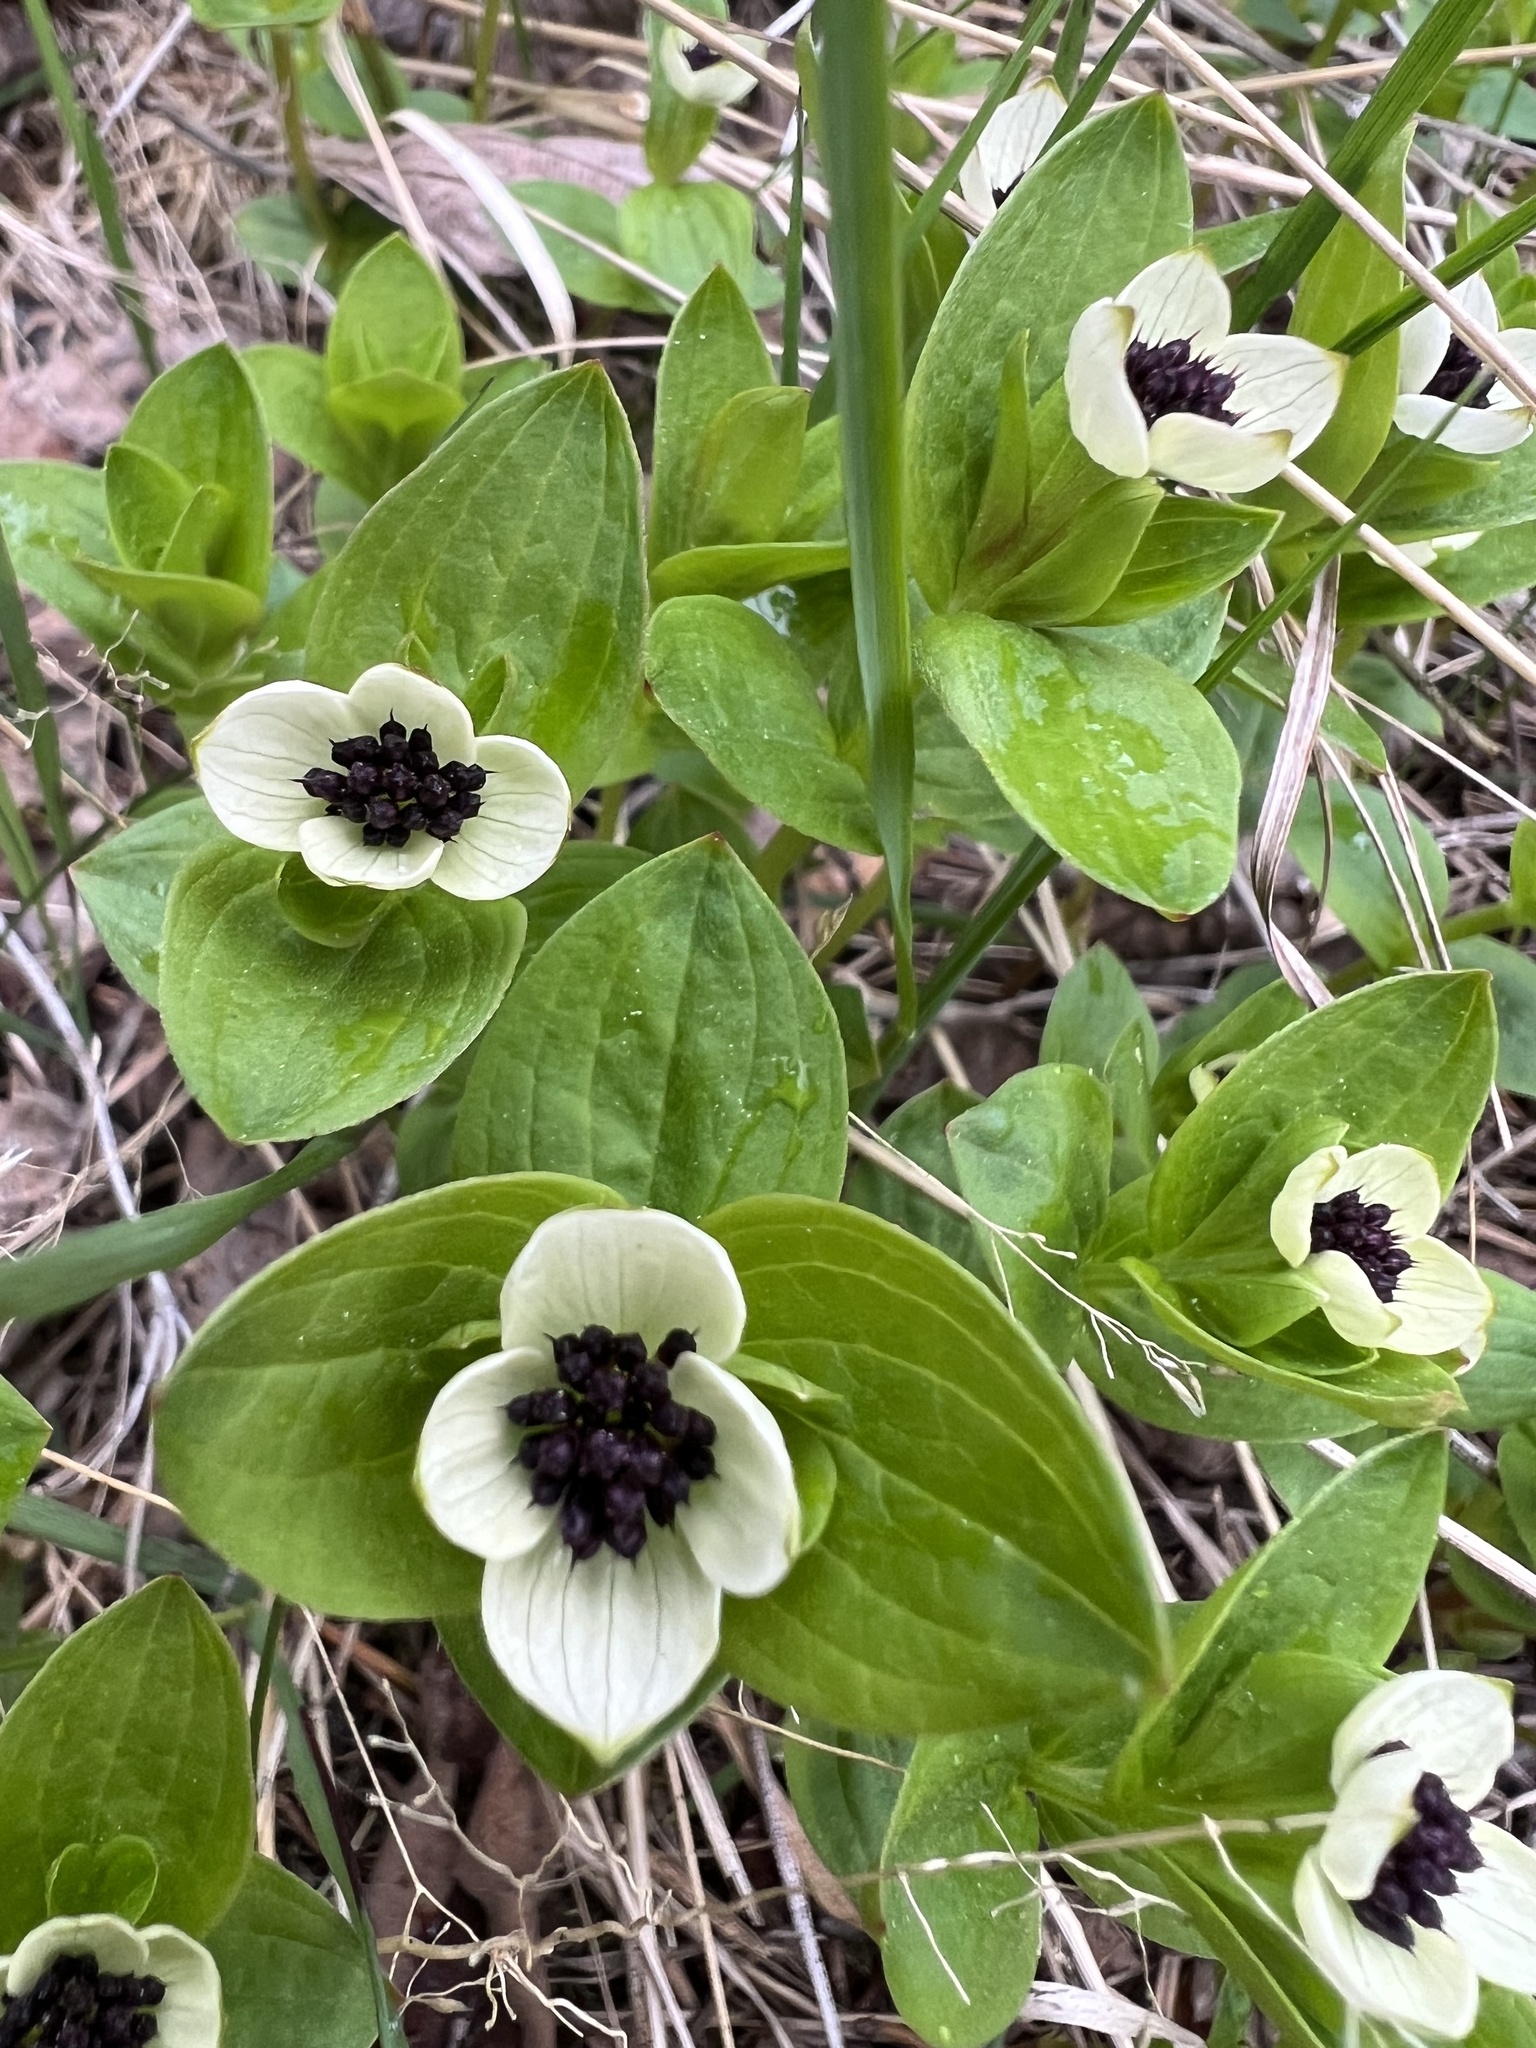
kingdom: Plantae
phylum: Tracheophyta
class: Magnoliopsida
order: Cornales
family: Cornaceae
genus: Cornus
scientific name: Cornus suecica
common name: Dwarf cornel
